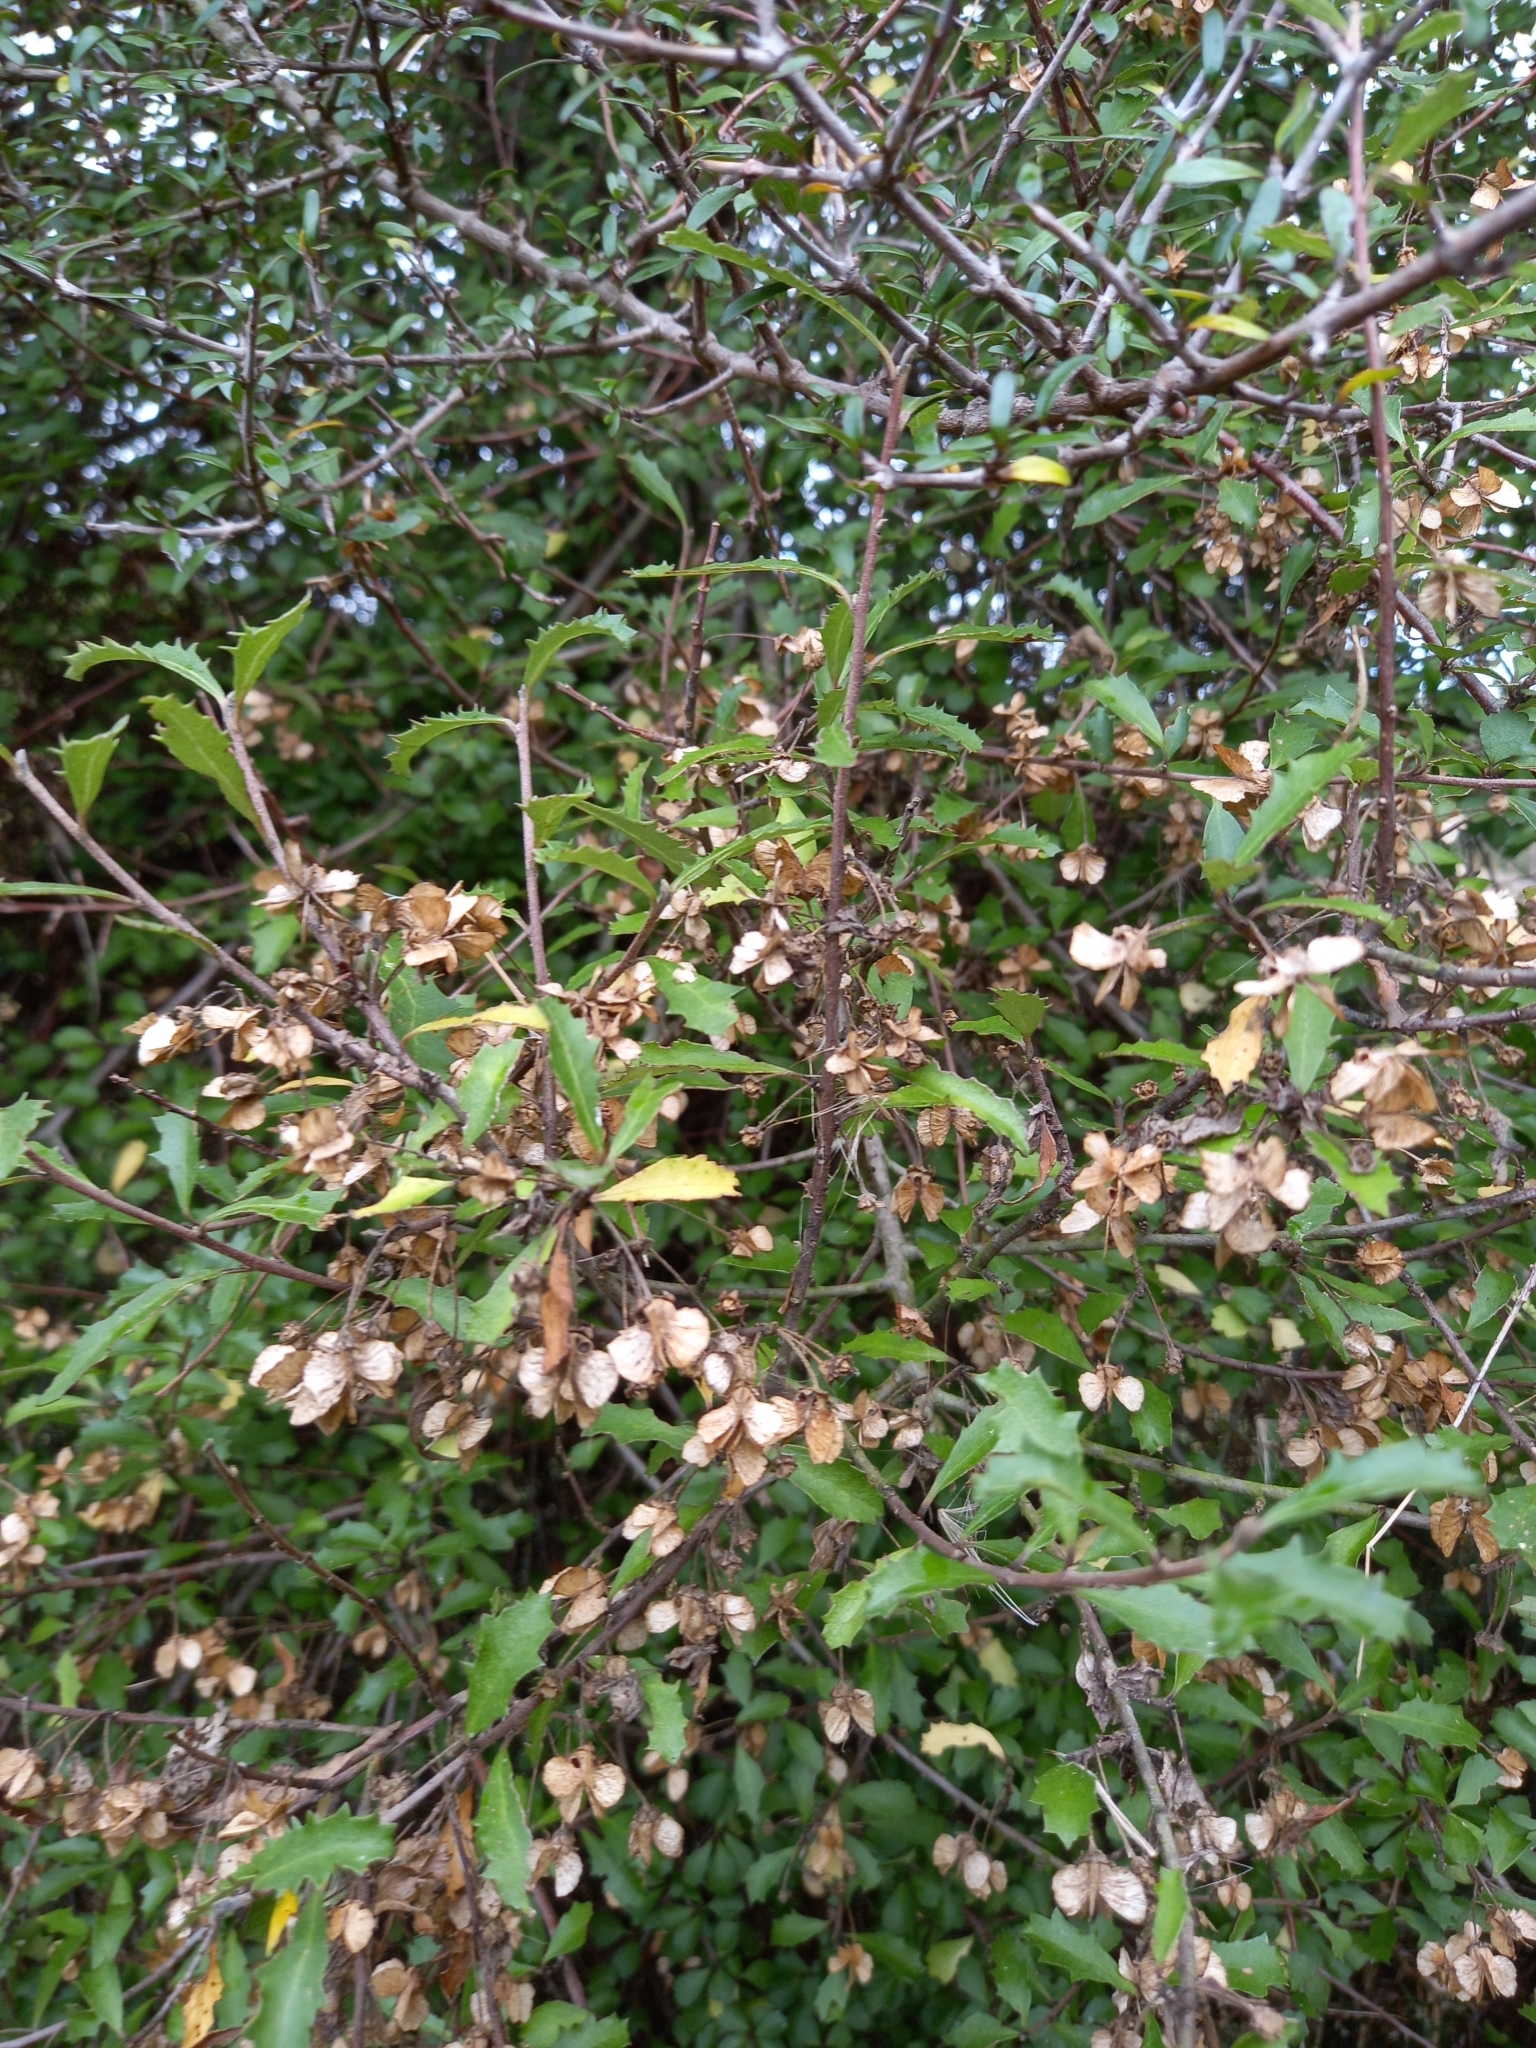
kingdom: Plantae
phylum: Tracheophyta
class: Magnoliopsida
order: Malvales
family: Malvaceae
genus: Hoheria
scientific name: Hoheria angustifolia
